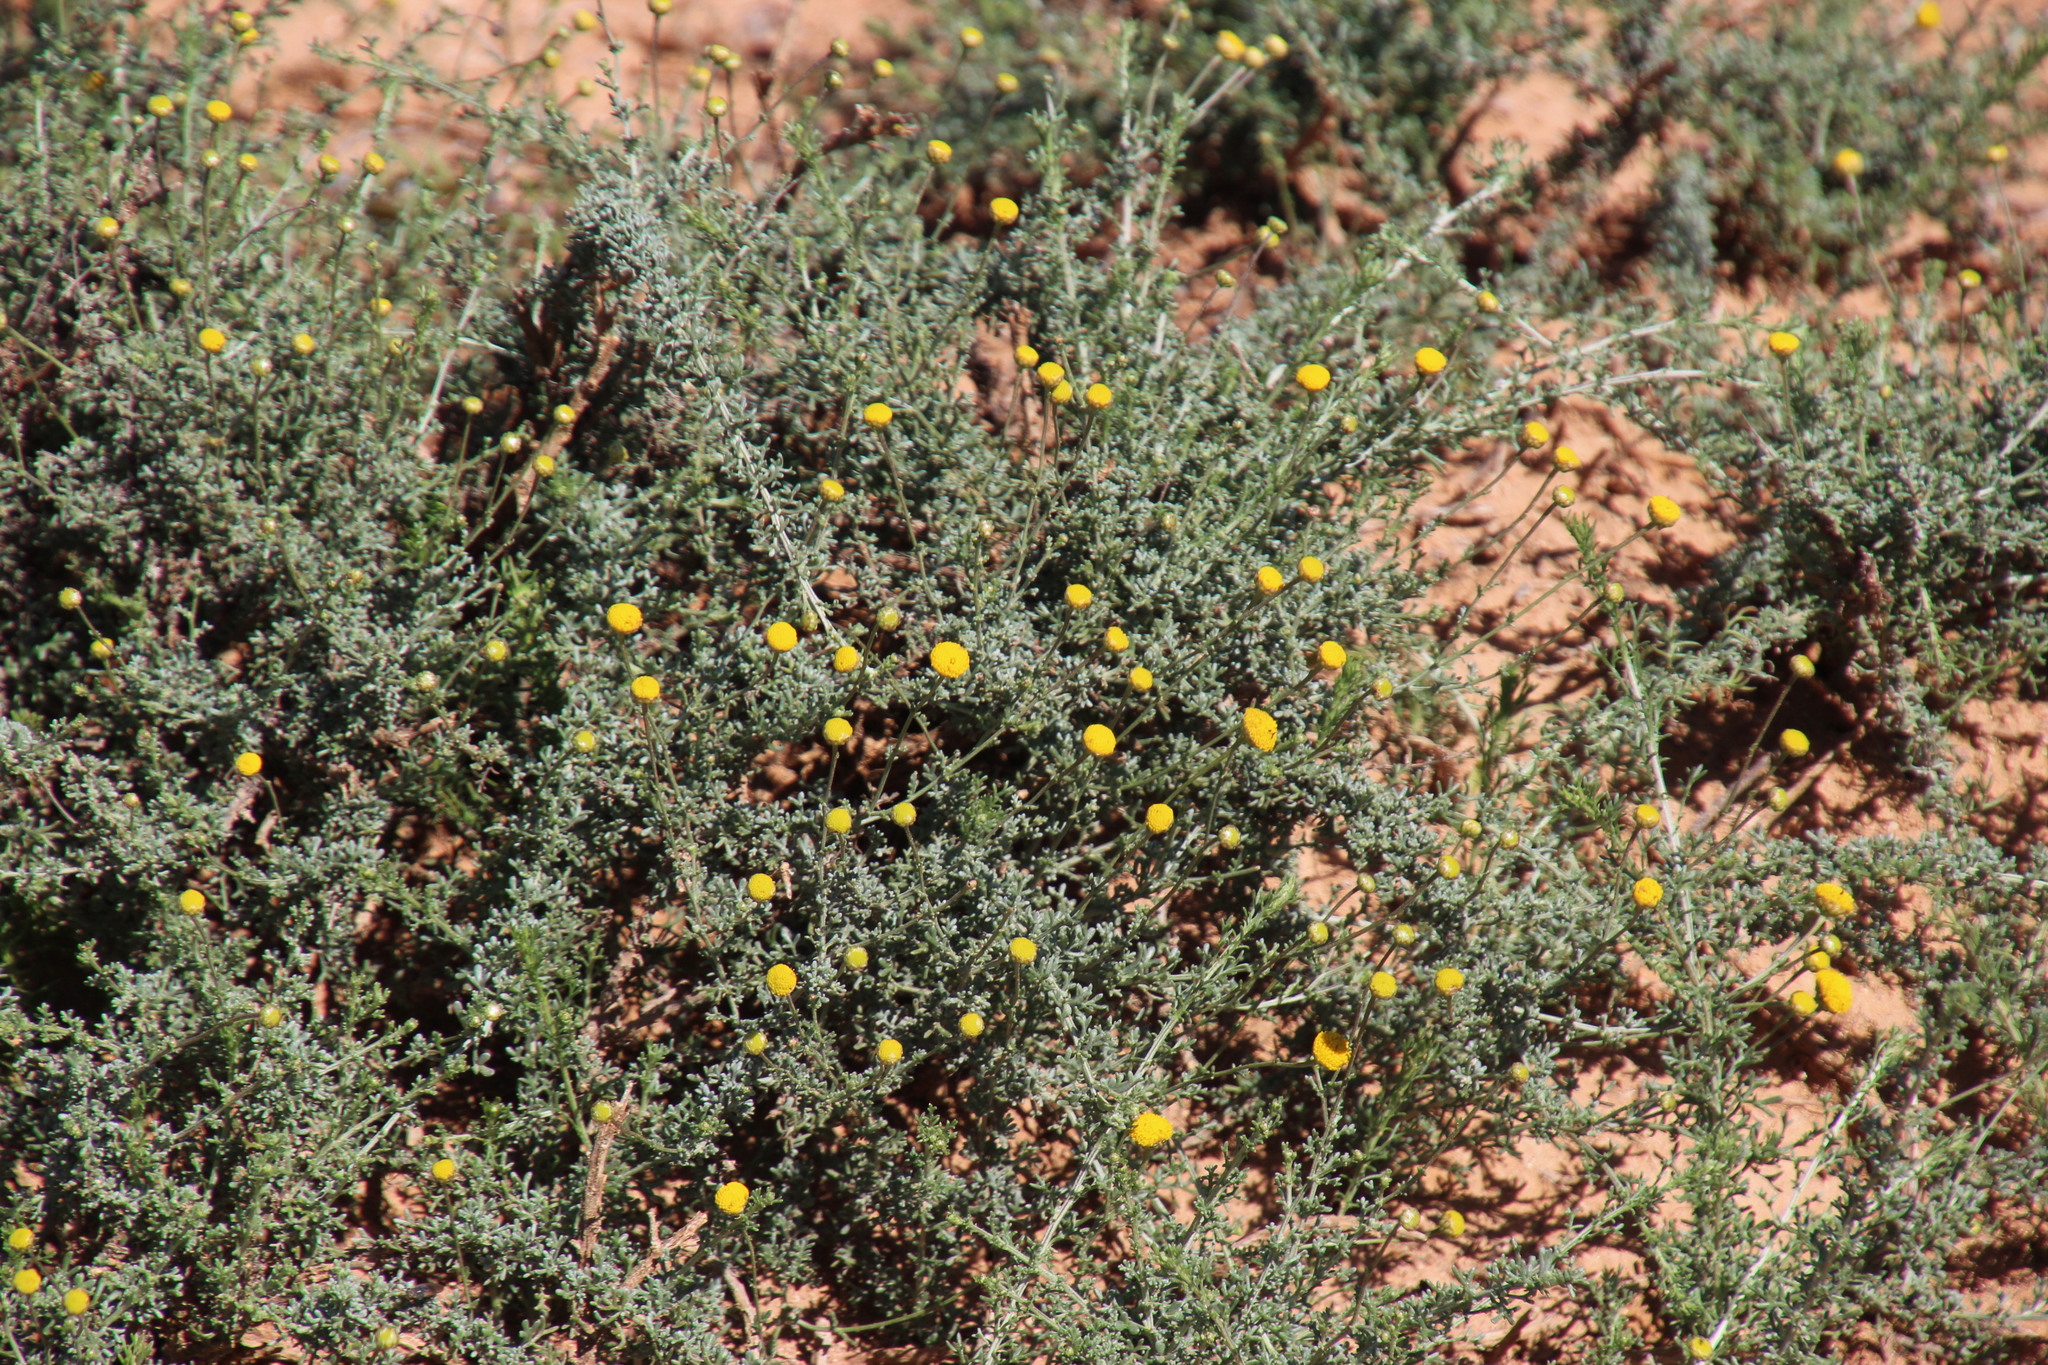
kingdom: Plantae
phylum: Tracheophyta
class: Magnoliopsida
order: Asterales
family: Asteraceae
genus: Pentzia
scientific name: Pentzia incana
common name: African sheepbush
